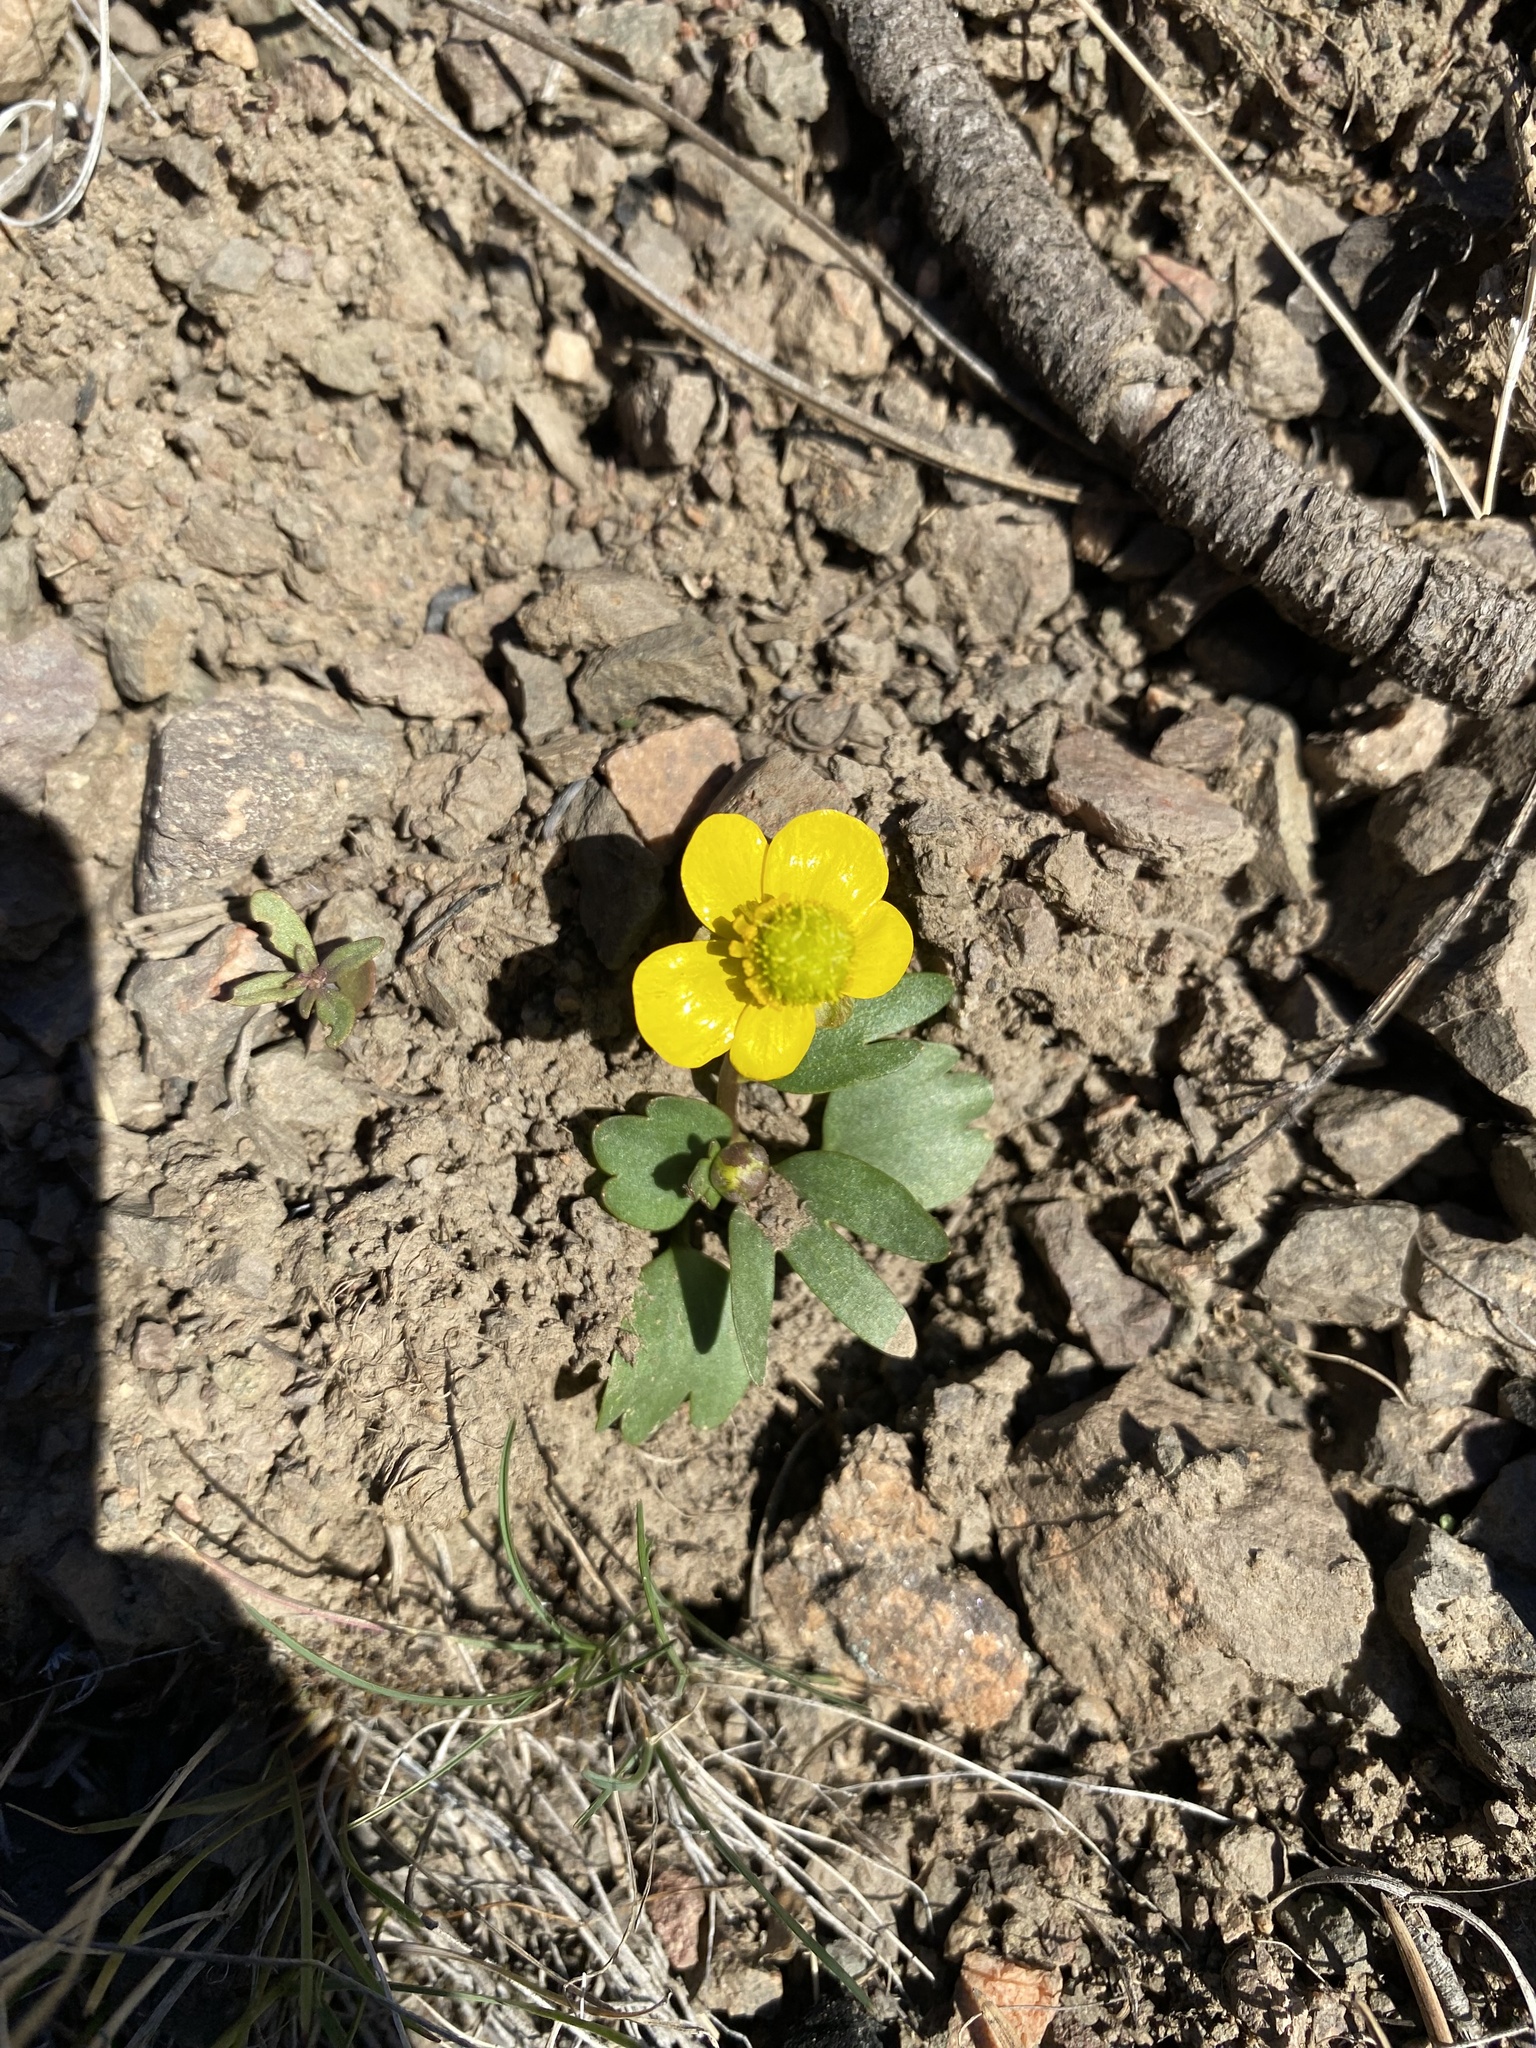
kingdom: Plantae
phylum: Tracheophyta
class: Magnoliopsida
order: Ranunculales
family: Ranunculaceae
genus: Ranunculus
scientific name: Ranunculus glaberrimus
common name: Sagebrush buttercup
